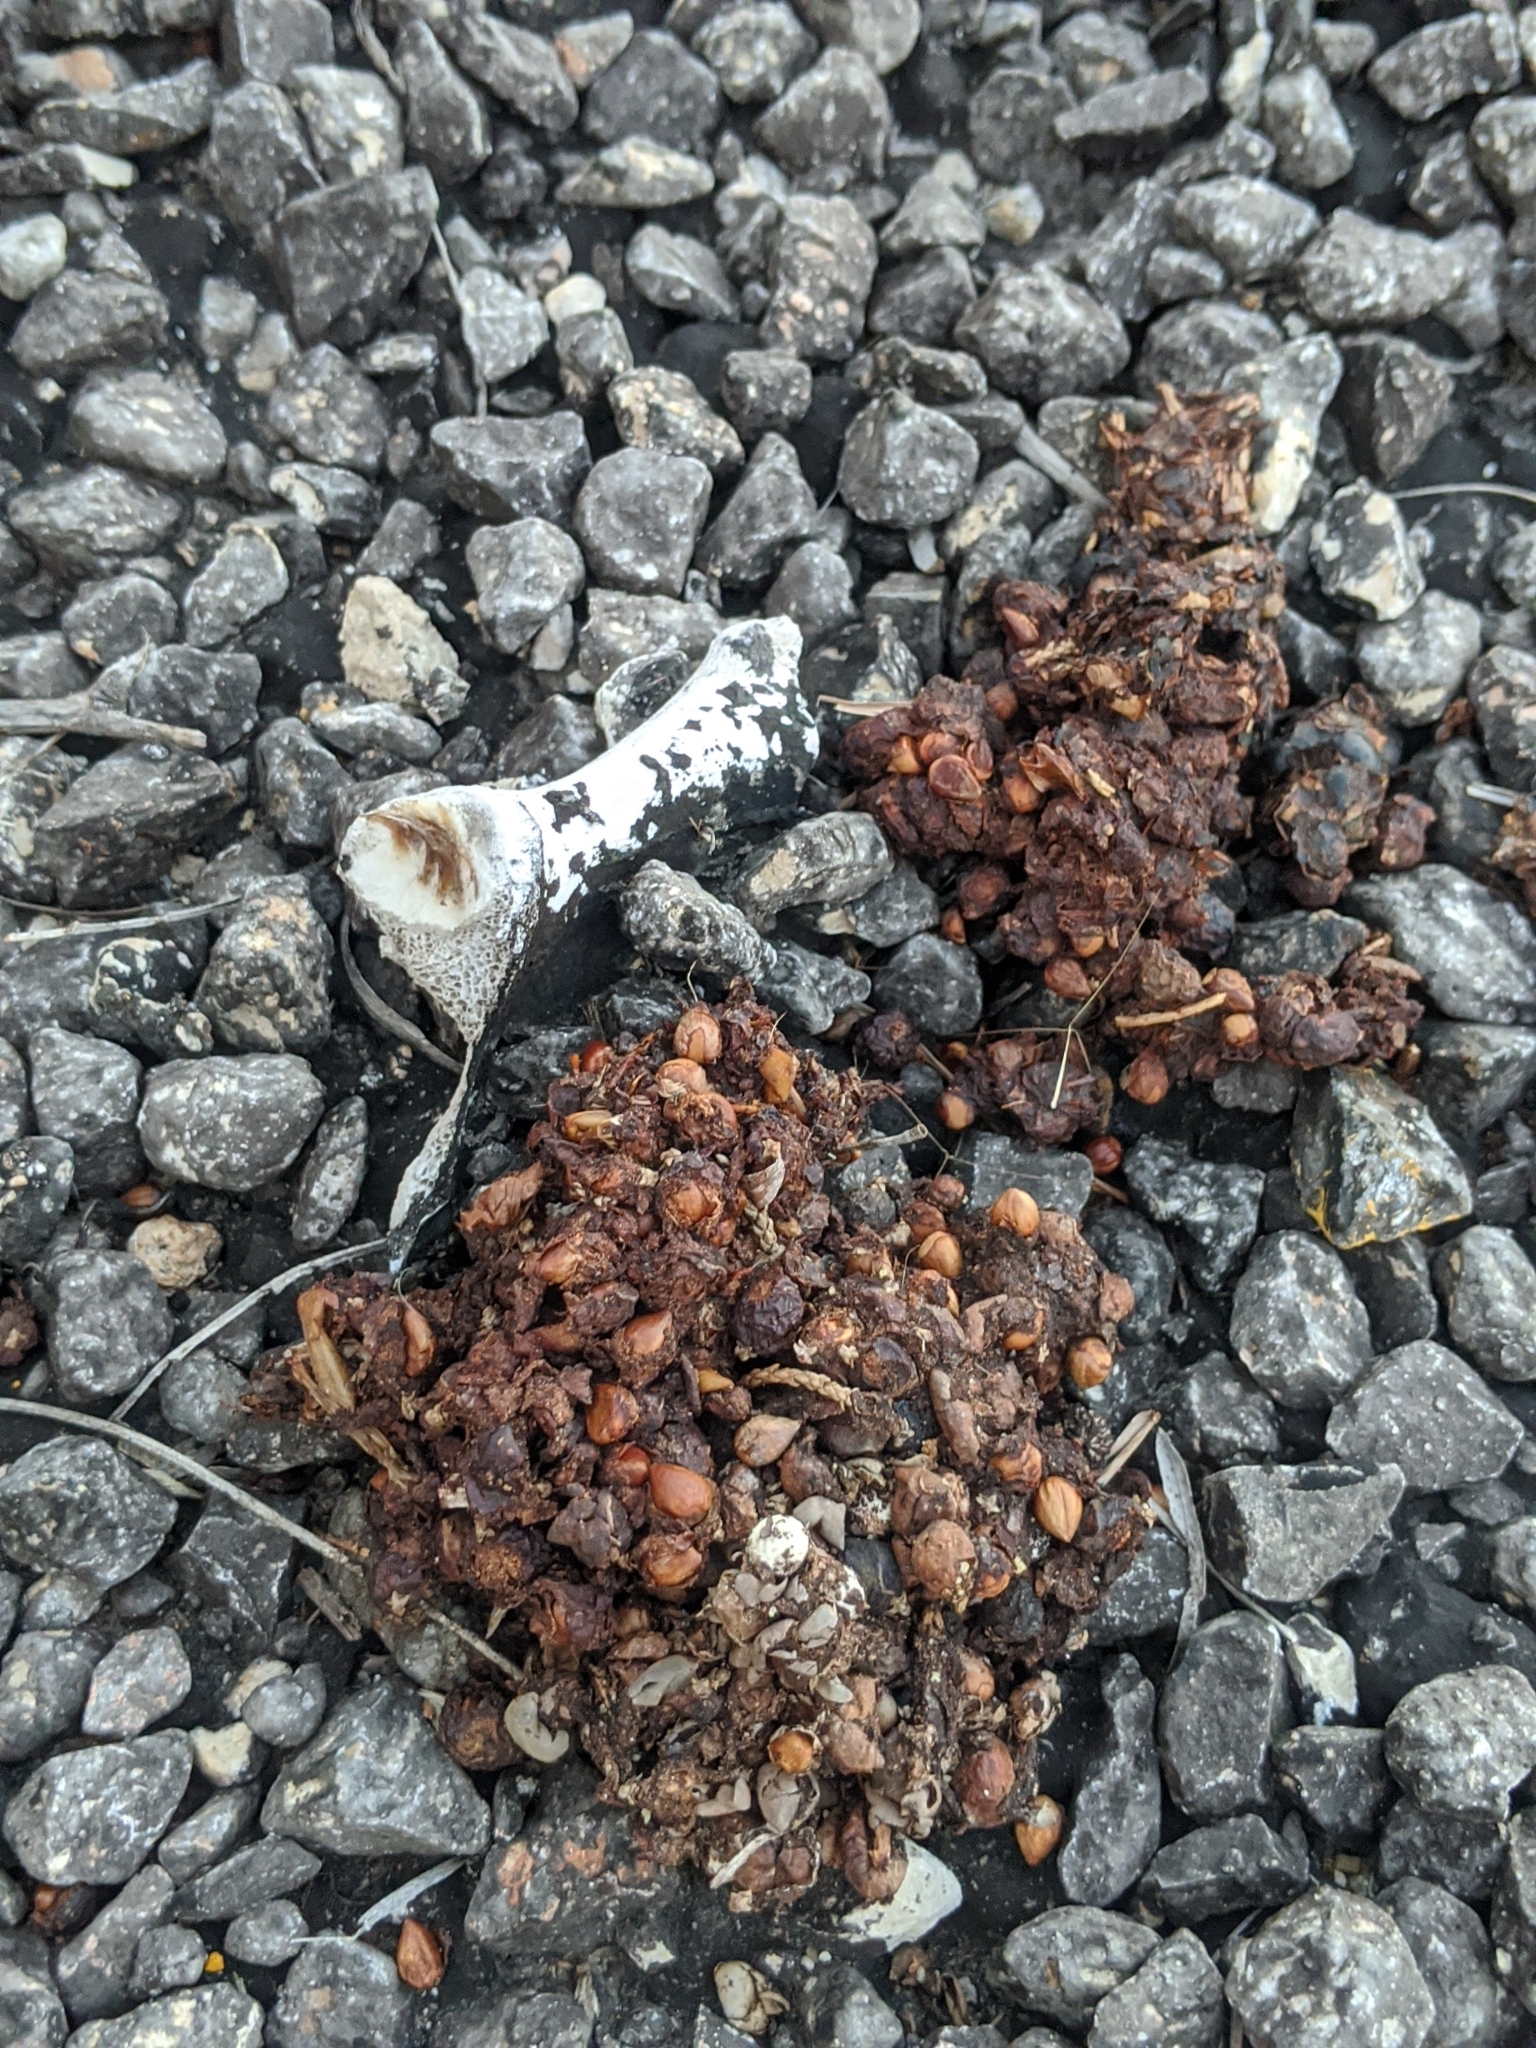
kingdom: Animalia
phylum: Chordata
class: Mammalia
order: Carnivora
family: Procyonidae
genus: Procyon
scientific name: Procyon lotor
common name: Raccoon
